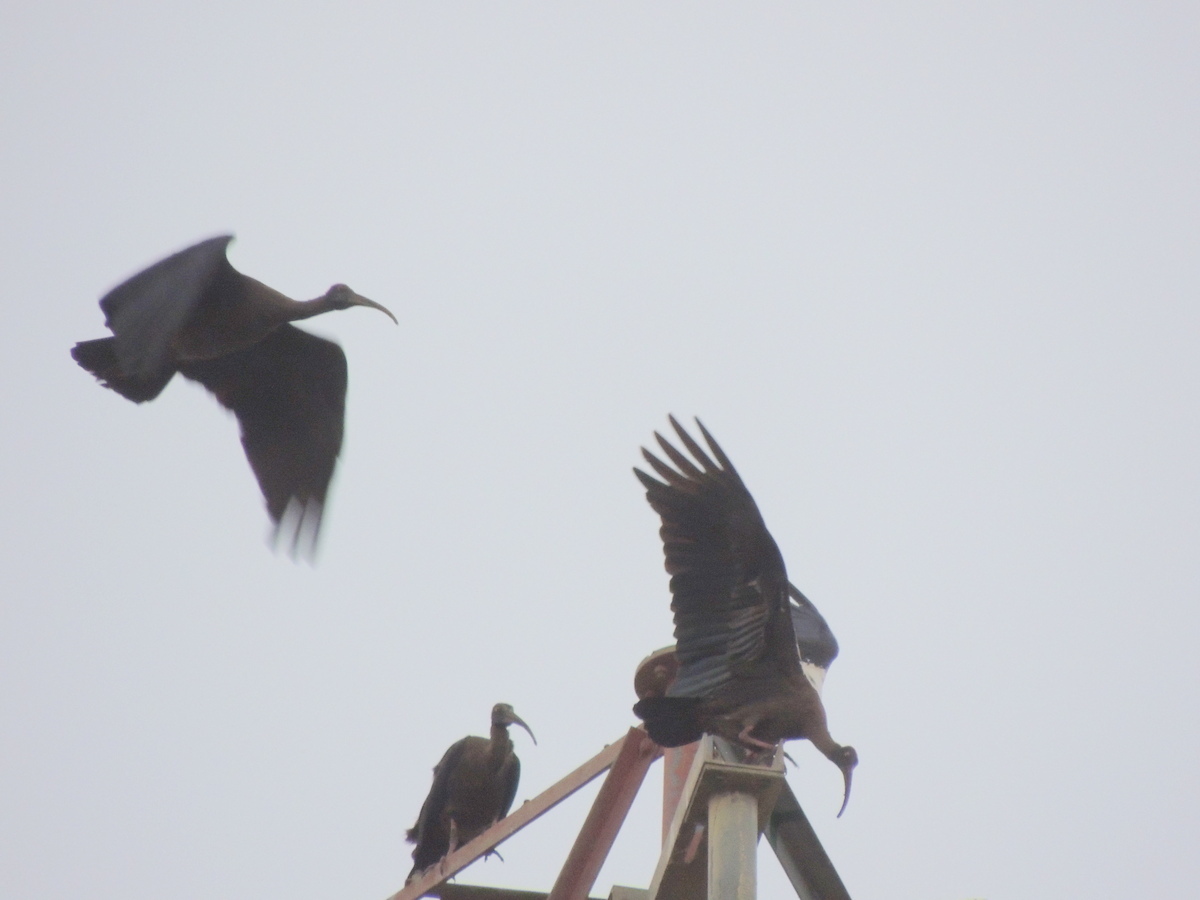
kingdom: Animalia
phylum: Chordata
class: Aves
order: Pelecaniformes
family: Threskiornithidae
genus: Pseudibis
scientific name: Pseudibis papillosa
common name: Red-naped ibis
